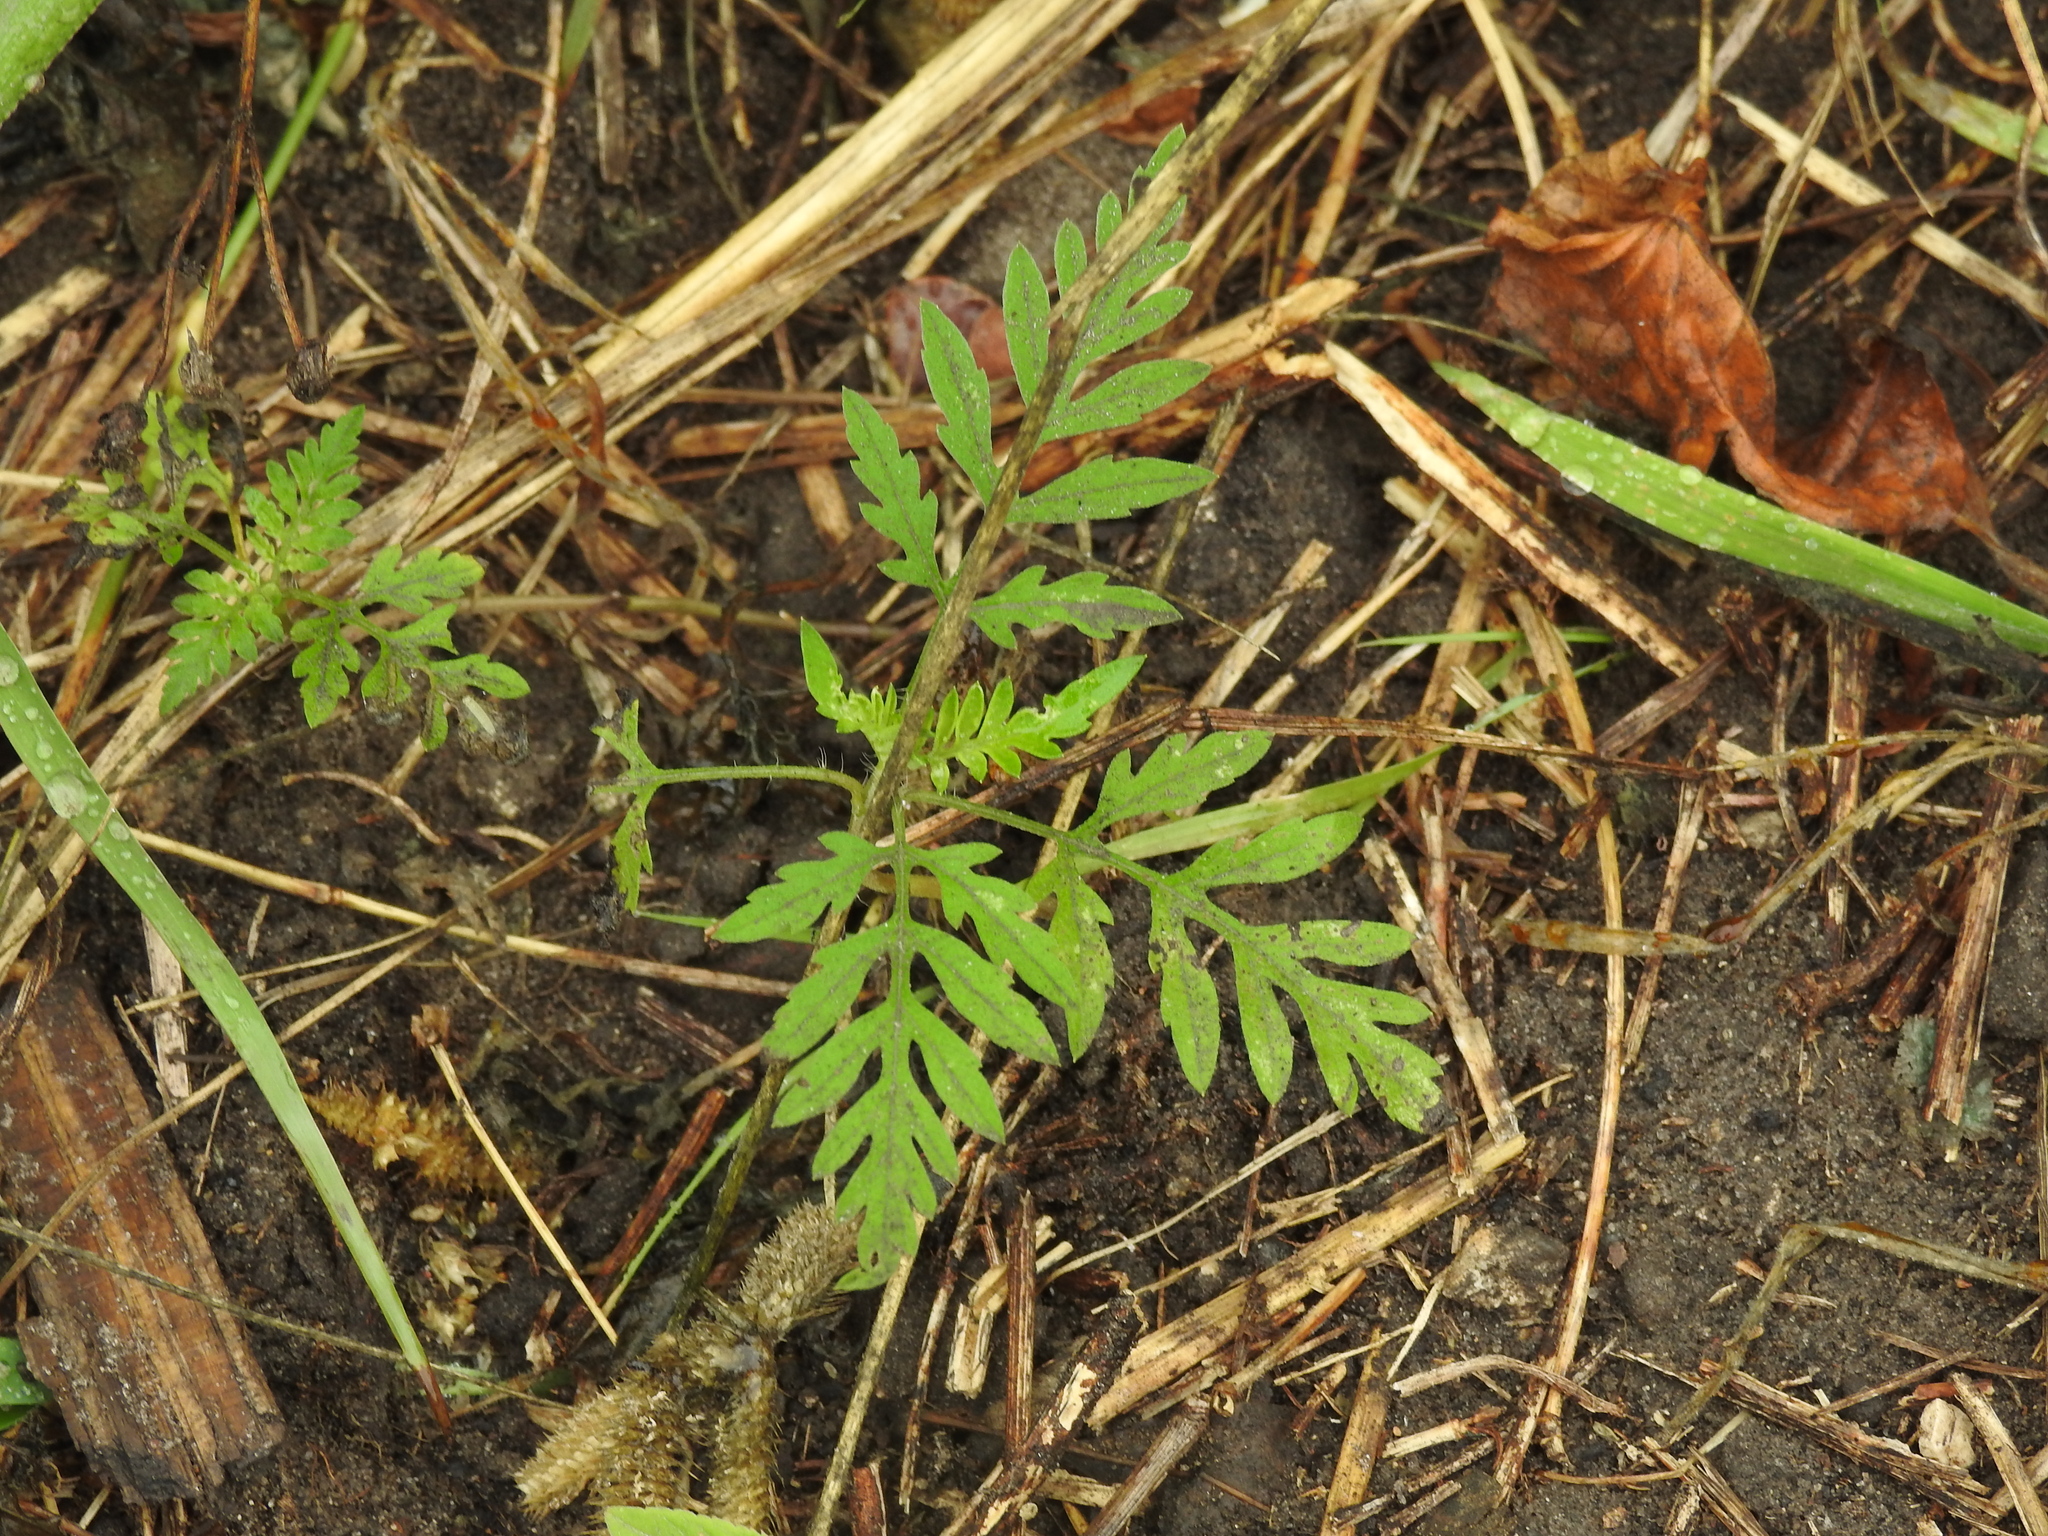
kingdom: Plantae
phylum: Tracheophyta
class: Magnoliopsida
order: Asterales
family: Asteraceae
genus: Ambrosia
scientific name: Ambrosia artemisiifolia
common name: Annual ragweed
